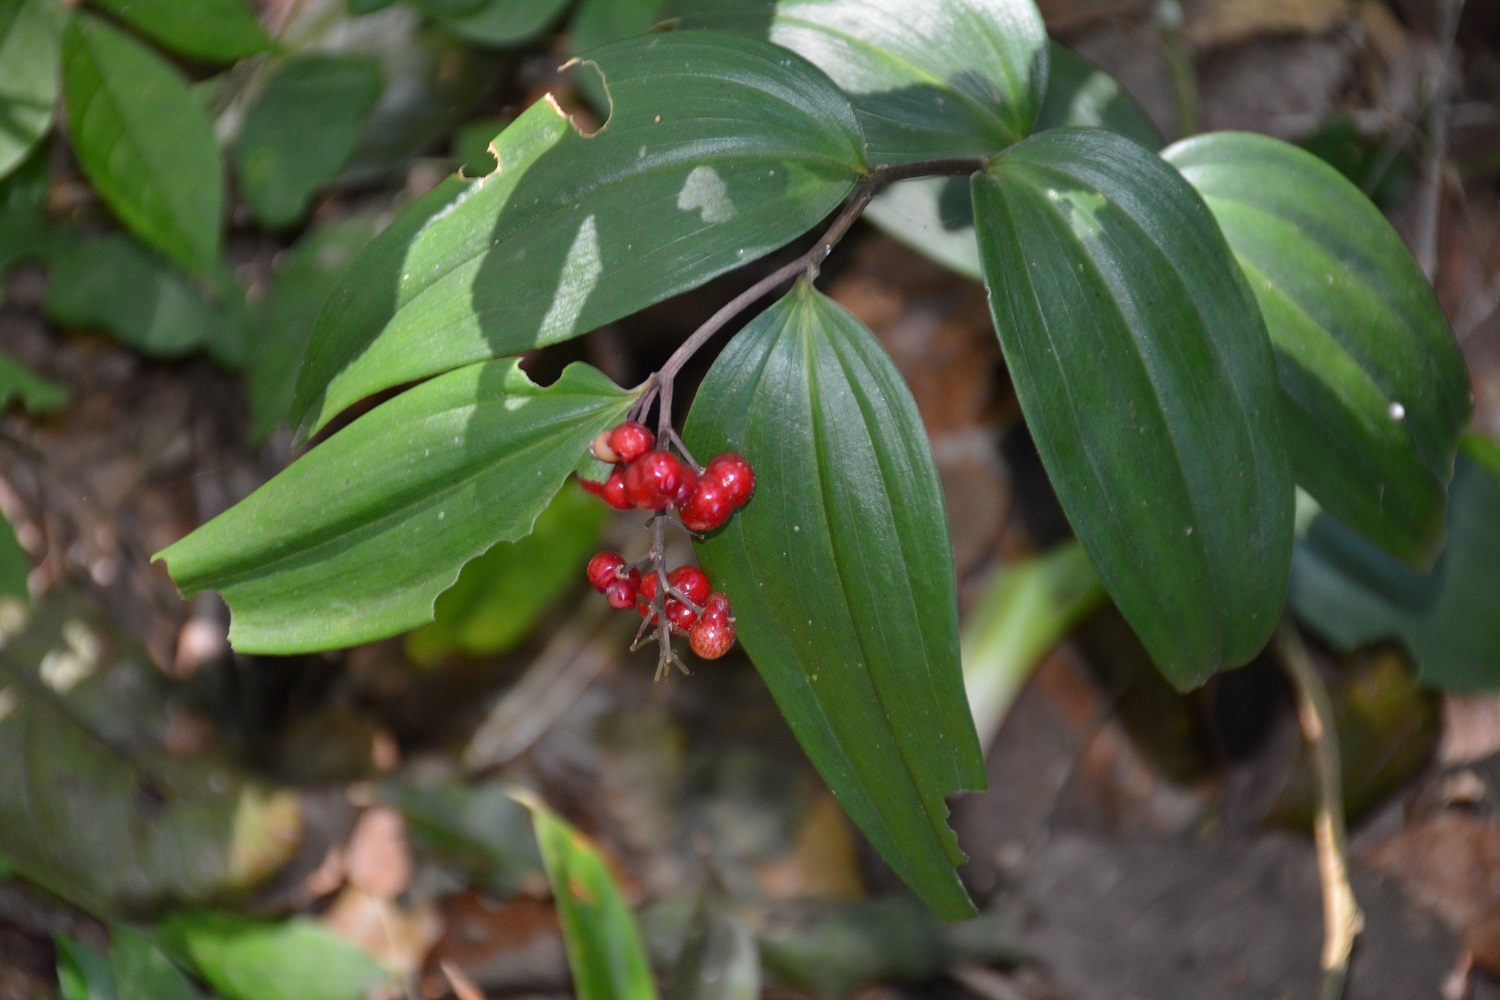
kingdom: Plantae
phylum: Tracheophyta
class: Liliopsida
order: Asparagales
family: Asparagaceae
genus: Maianthemum
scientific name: Maianthemum amoenum
